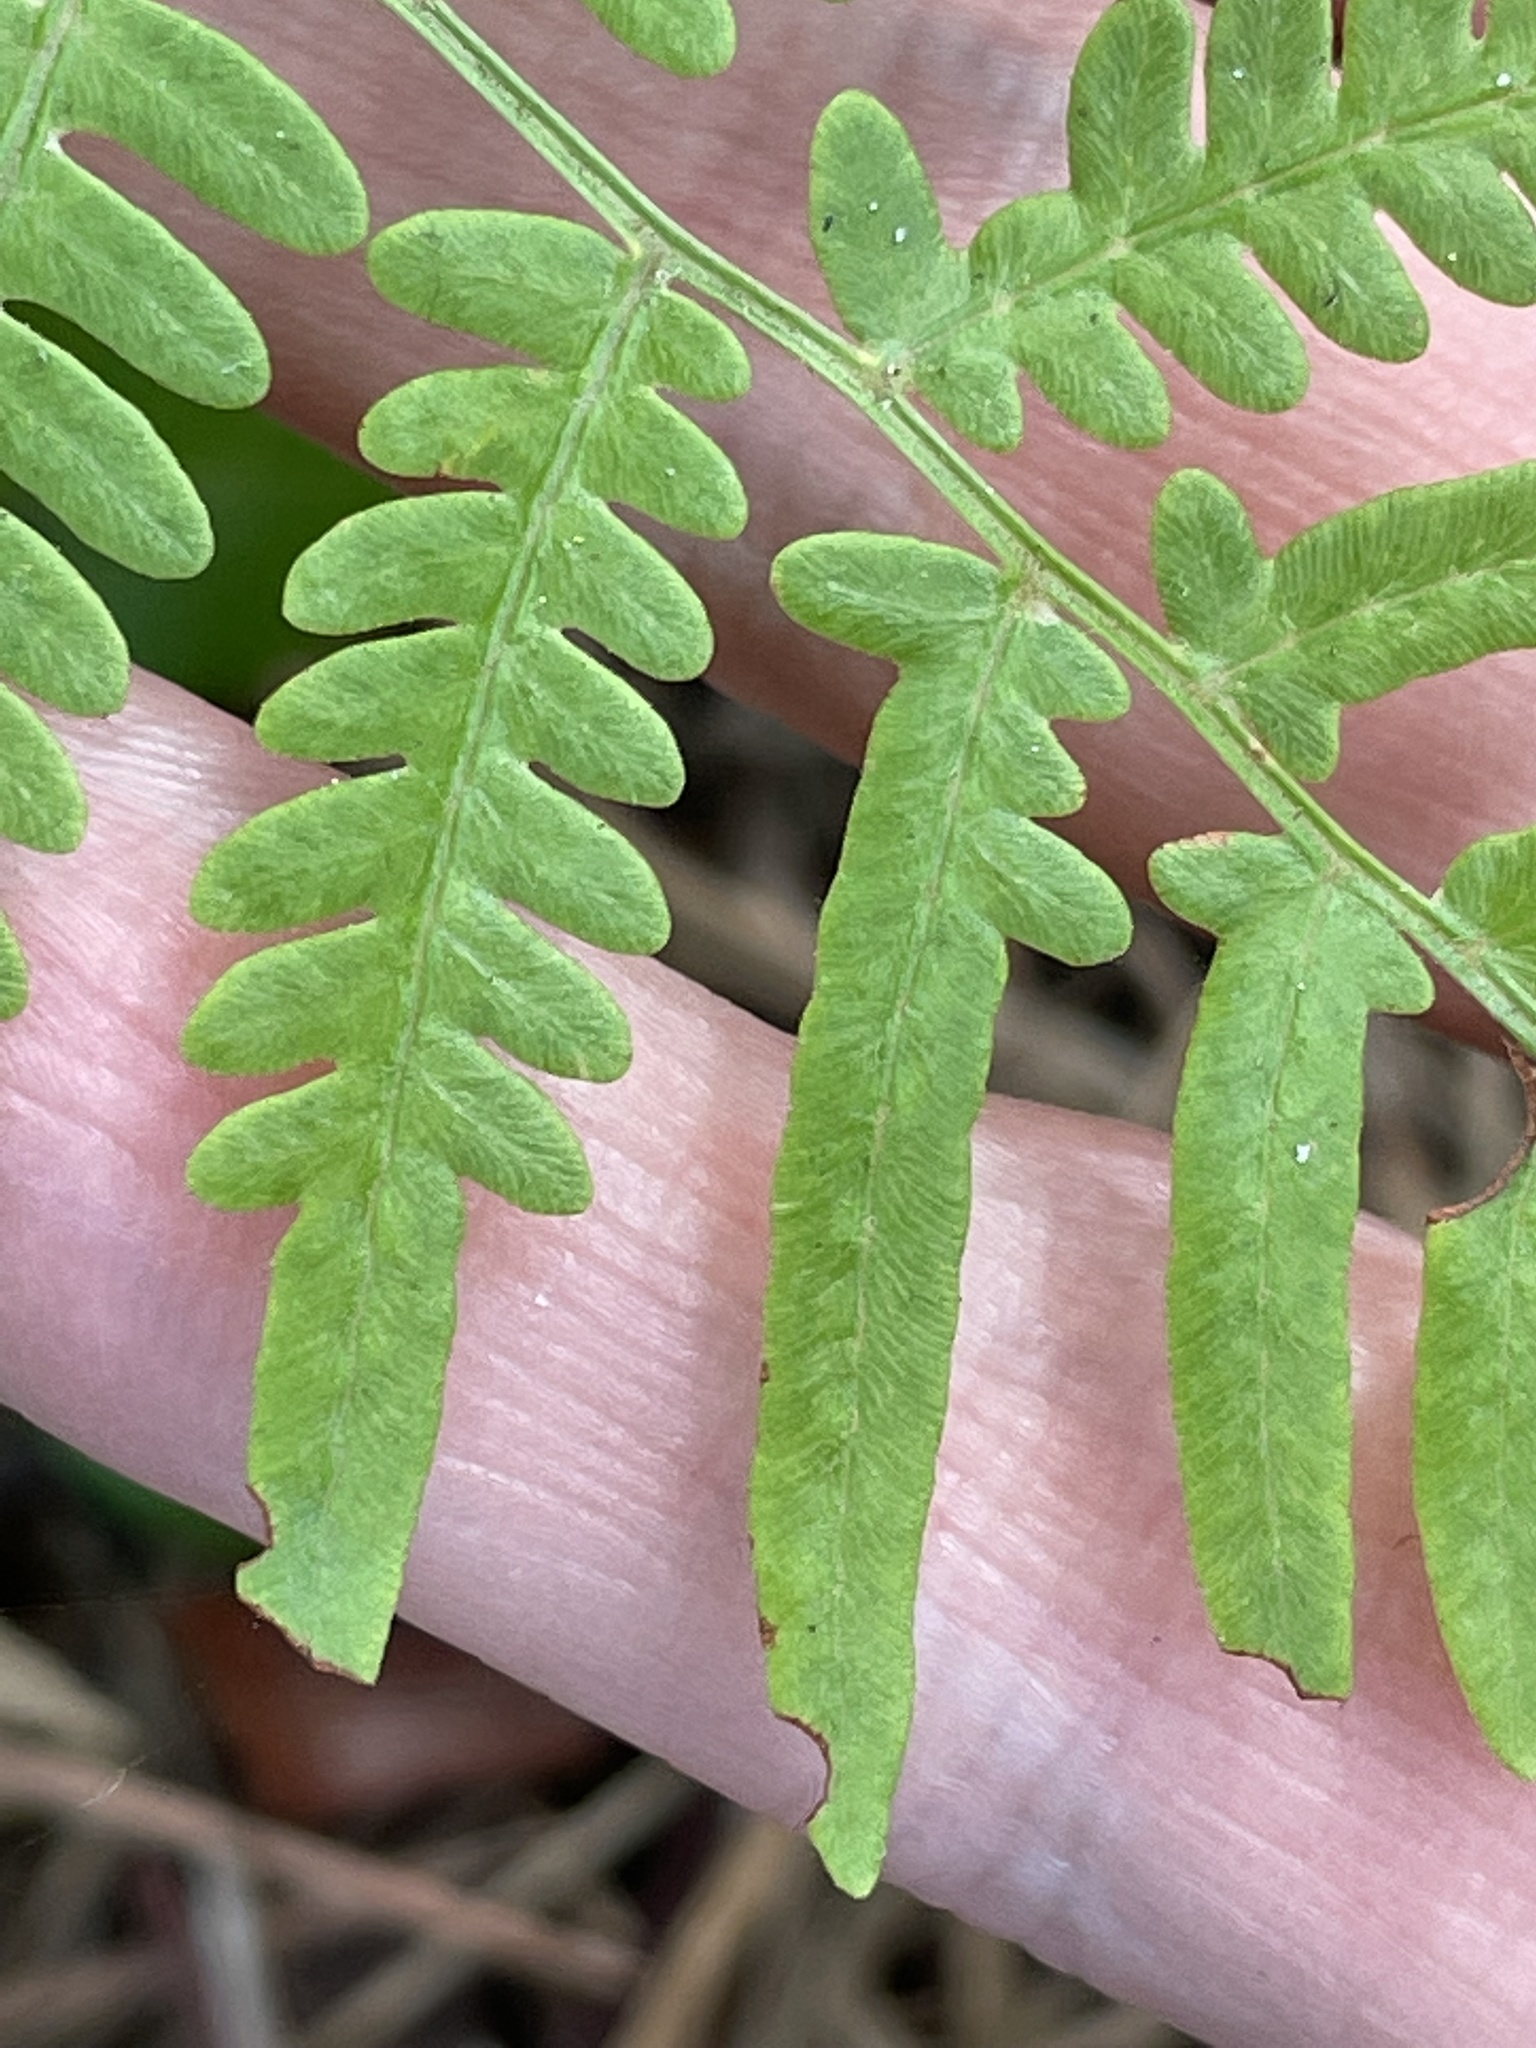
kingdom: Plantae
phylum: Tracheophyta
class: Polypodiopsida
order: Polypodiales
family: Dennstaedtiaceae
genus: Pteridium
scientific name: Pteridium
